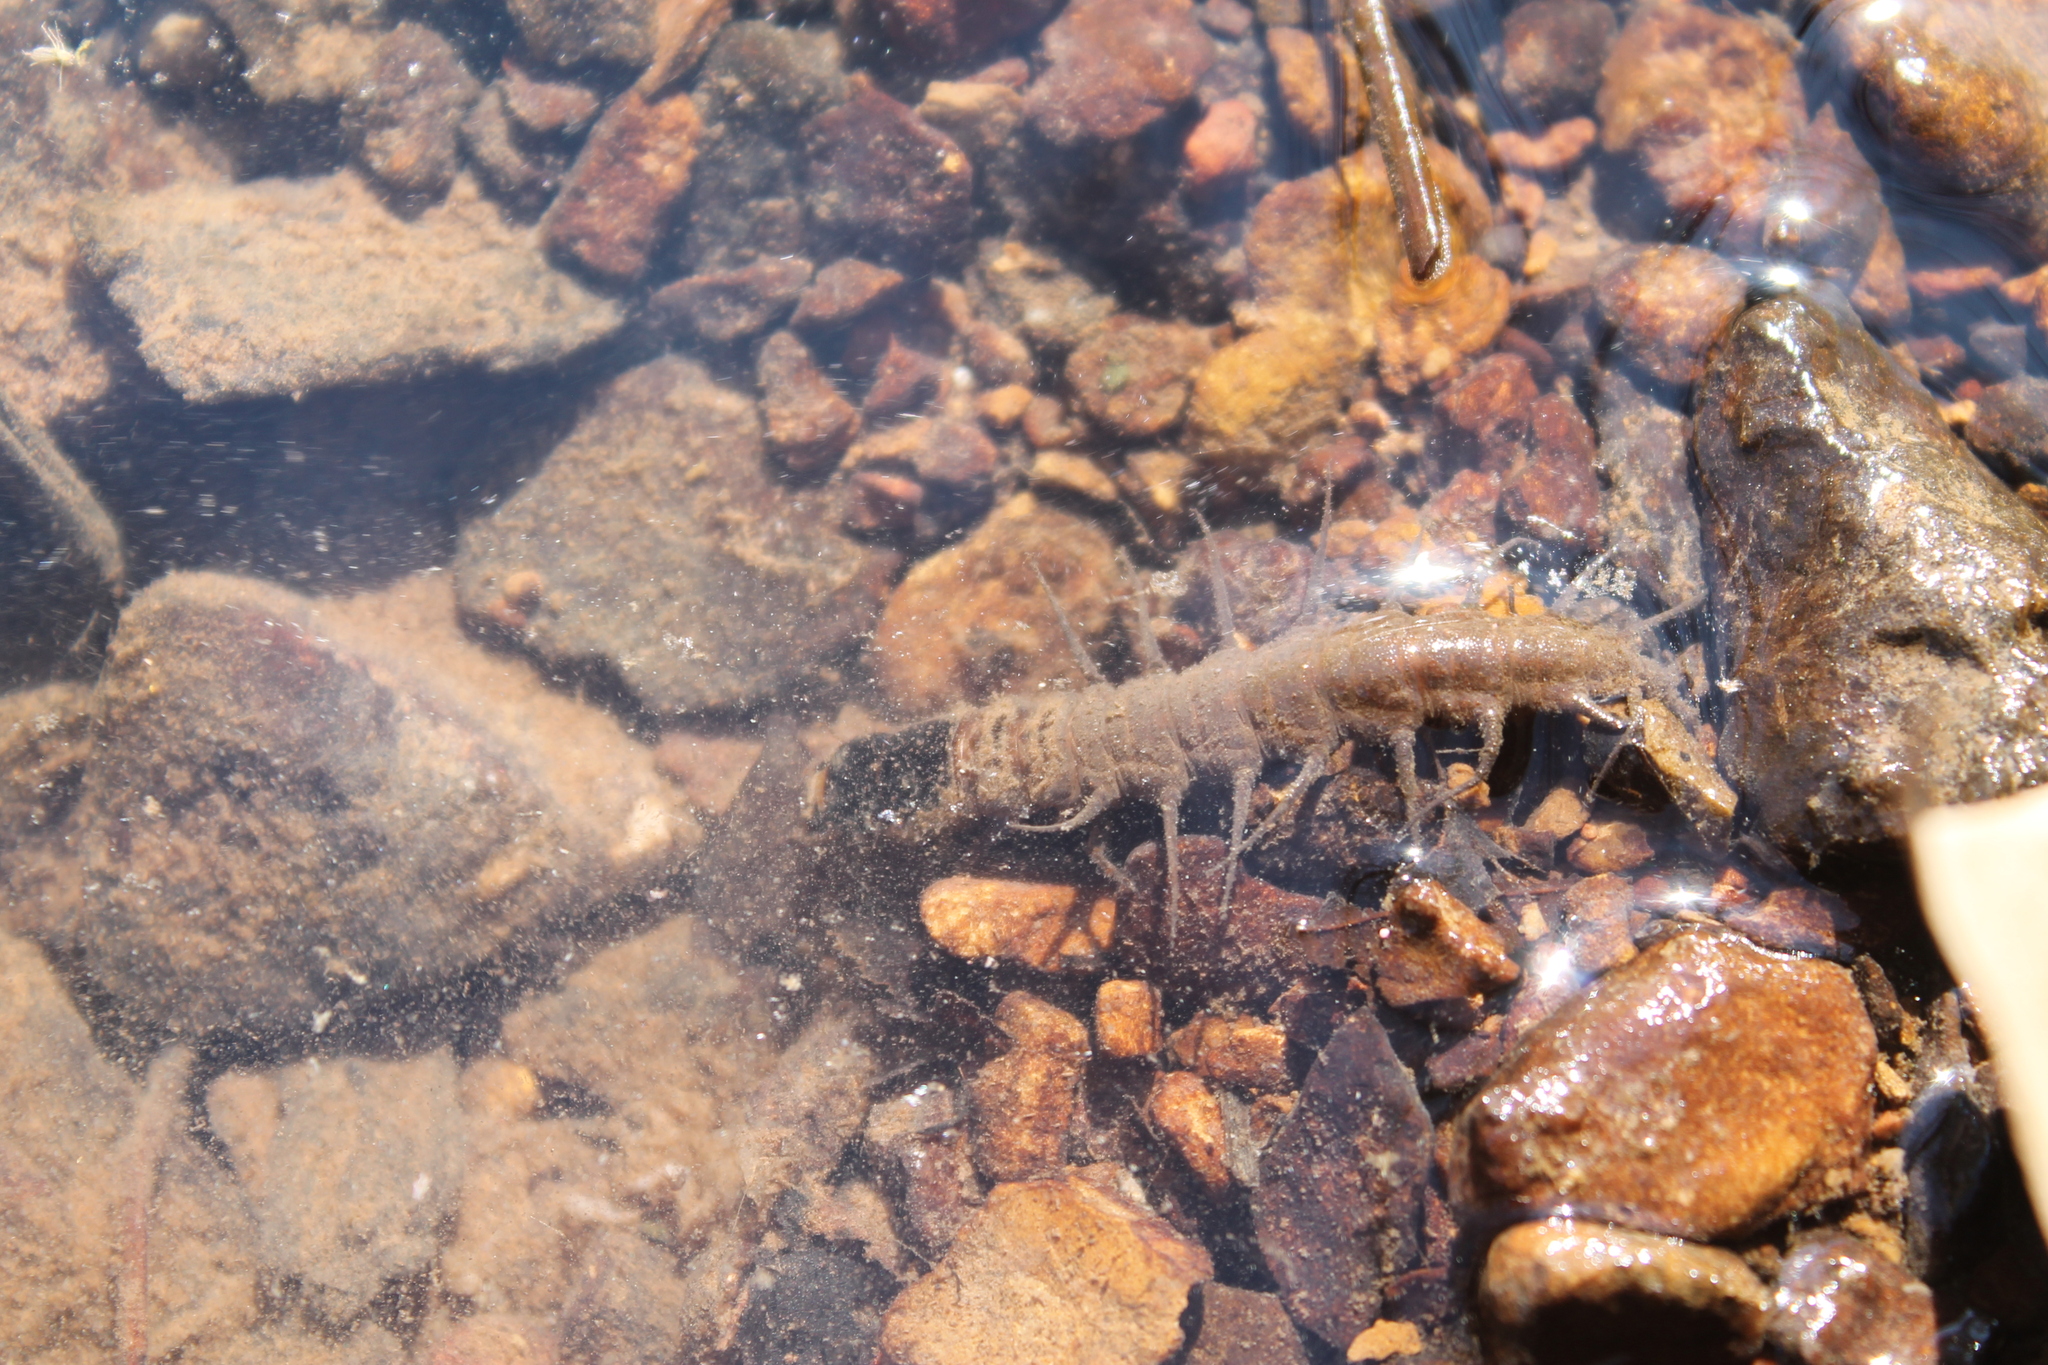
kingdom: Animalia
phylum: Arthropoda
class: Insecta
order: Megaloptera
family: Corydalidae
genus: Nigronia
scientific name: Nigronia serricornis
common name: Serrate dark fishfly
